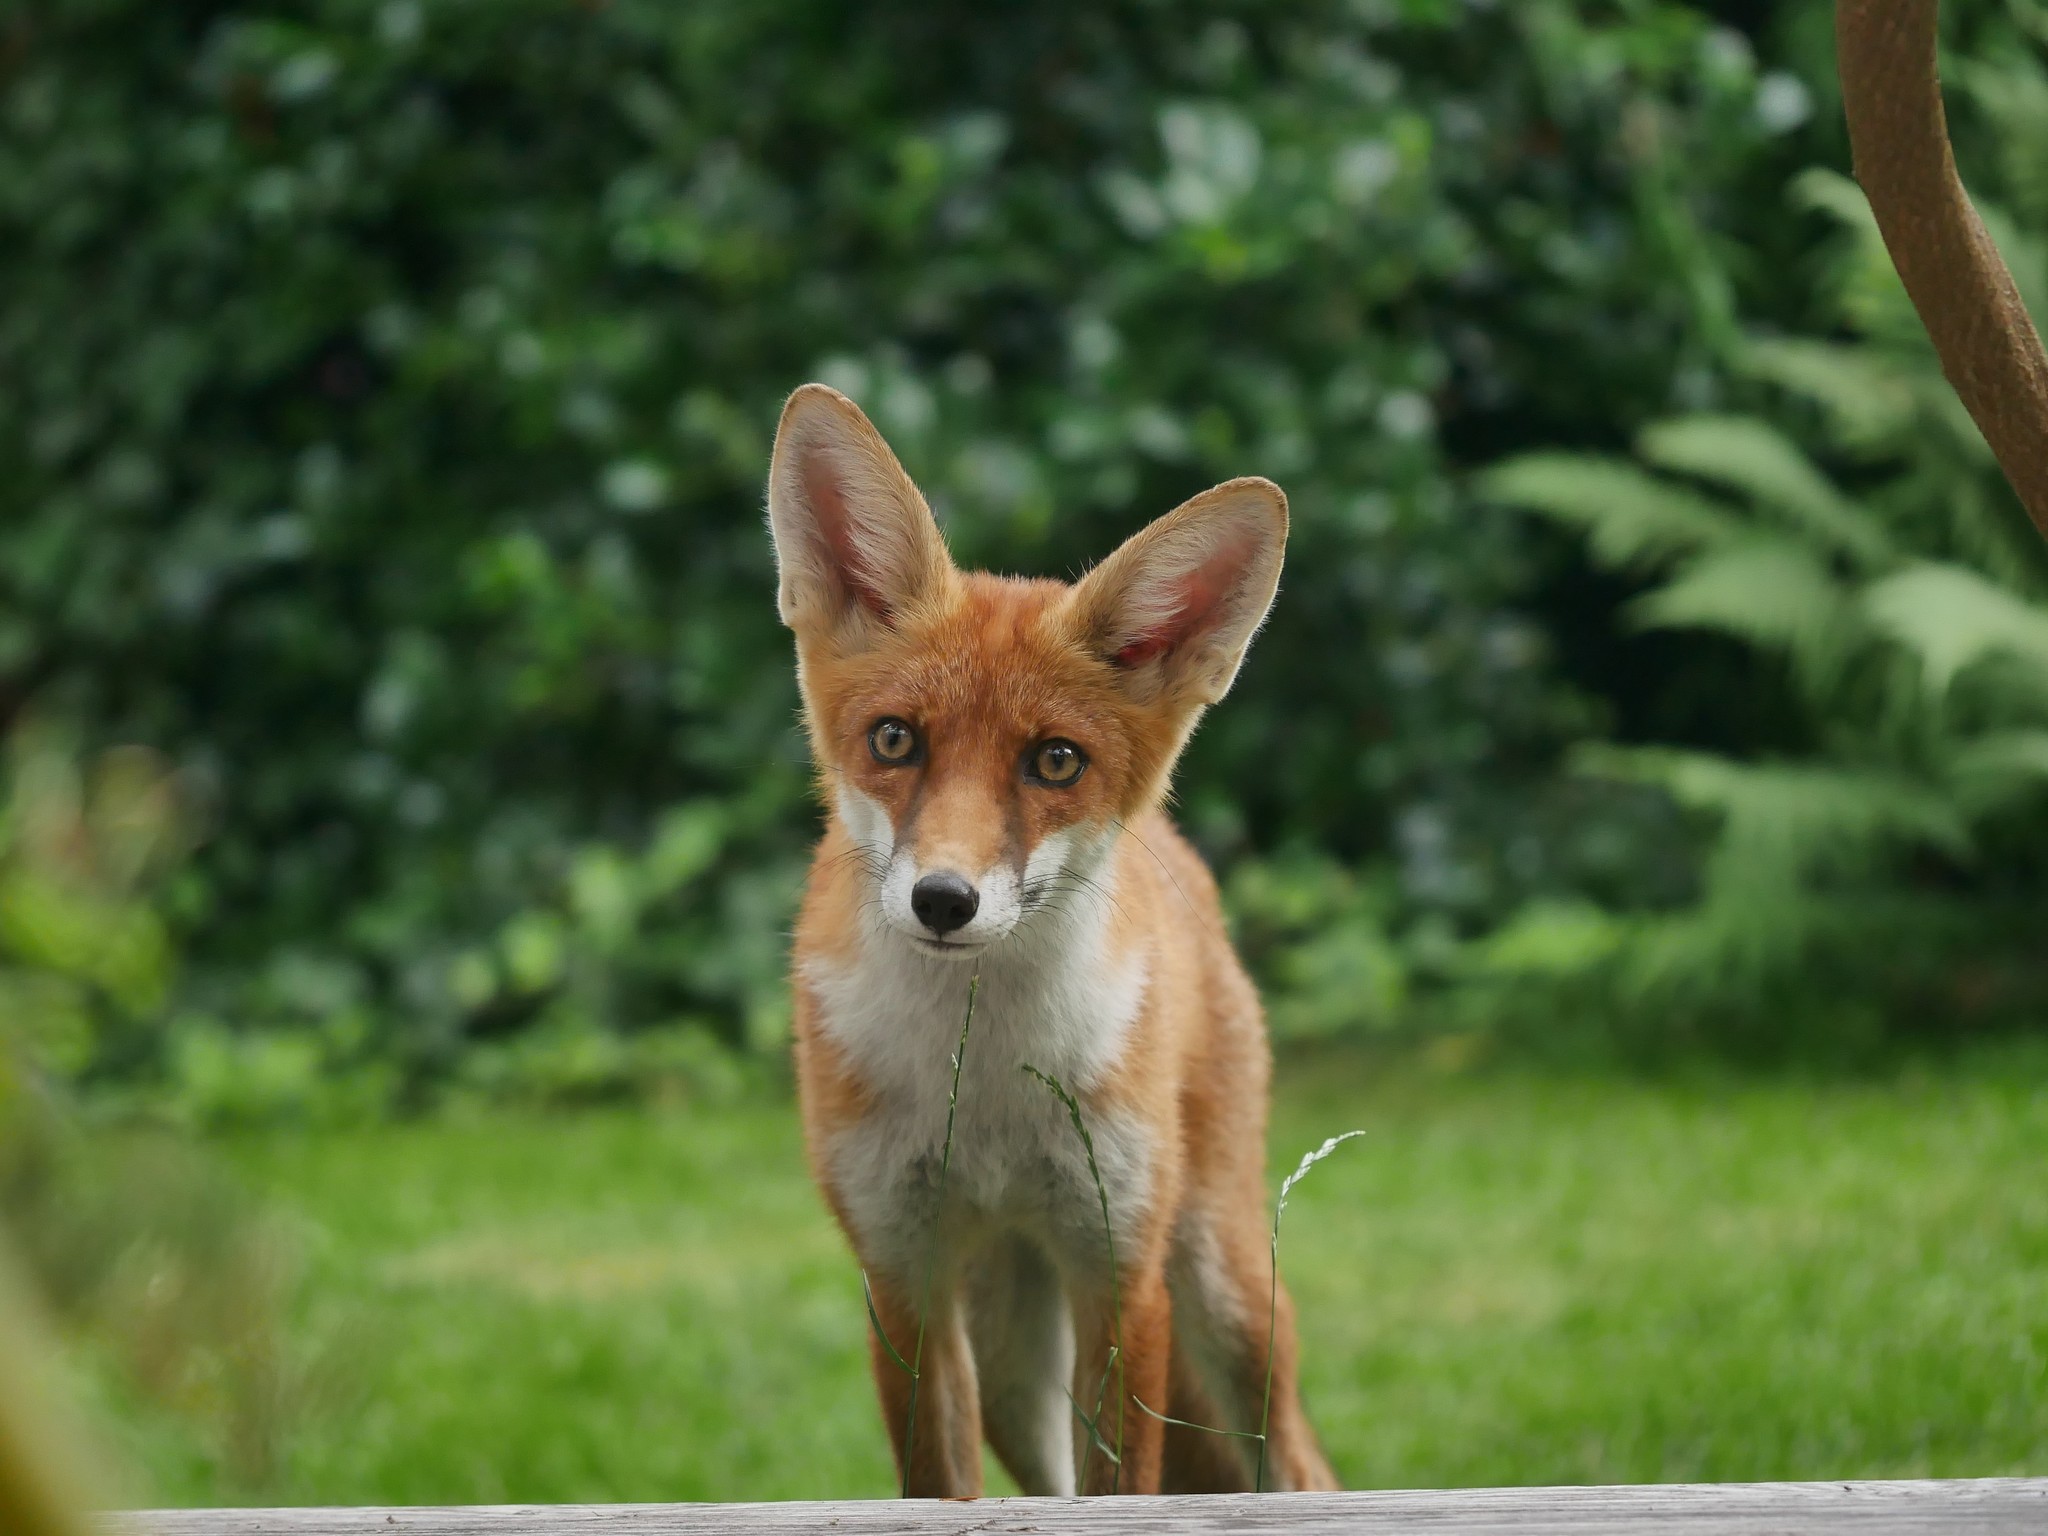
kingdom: Animalia
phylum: Chordata
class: Mammalia
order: Carnivora
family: Canidae
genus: Vulpes
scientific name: Vulpes vulpes
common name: Red fox
